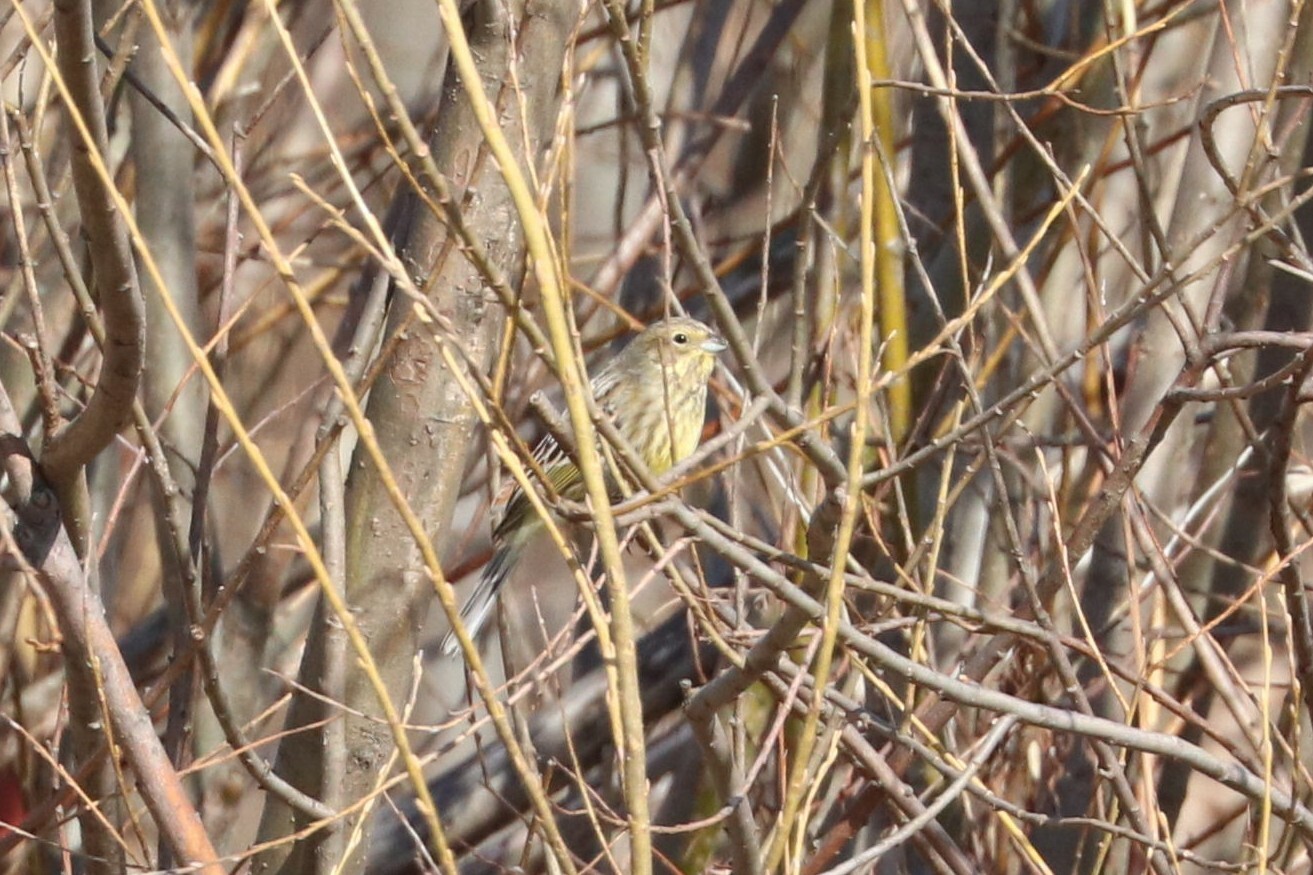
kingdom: Animalia
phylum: Chordata
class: Aves
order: Passeriformes
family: Emberizidae
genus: Emberiza
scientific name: Emberiza citrinella
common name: Yellowhammer
